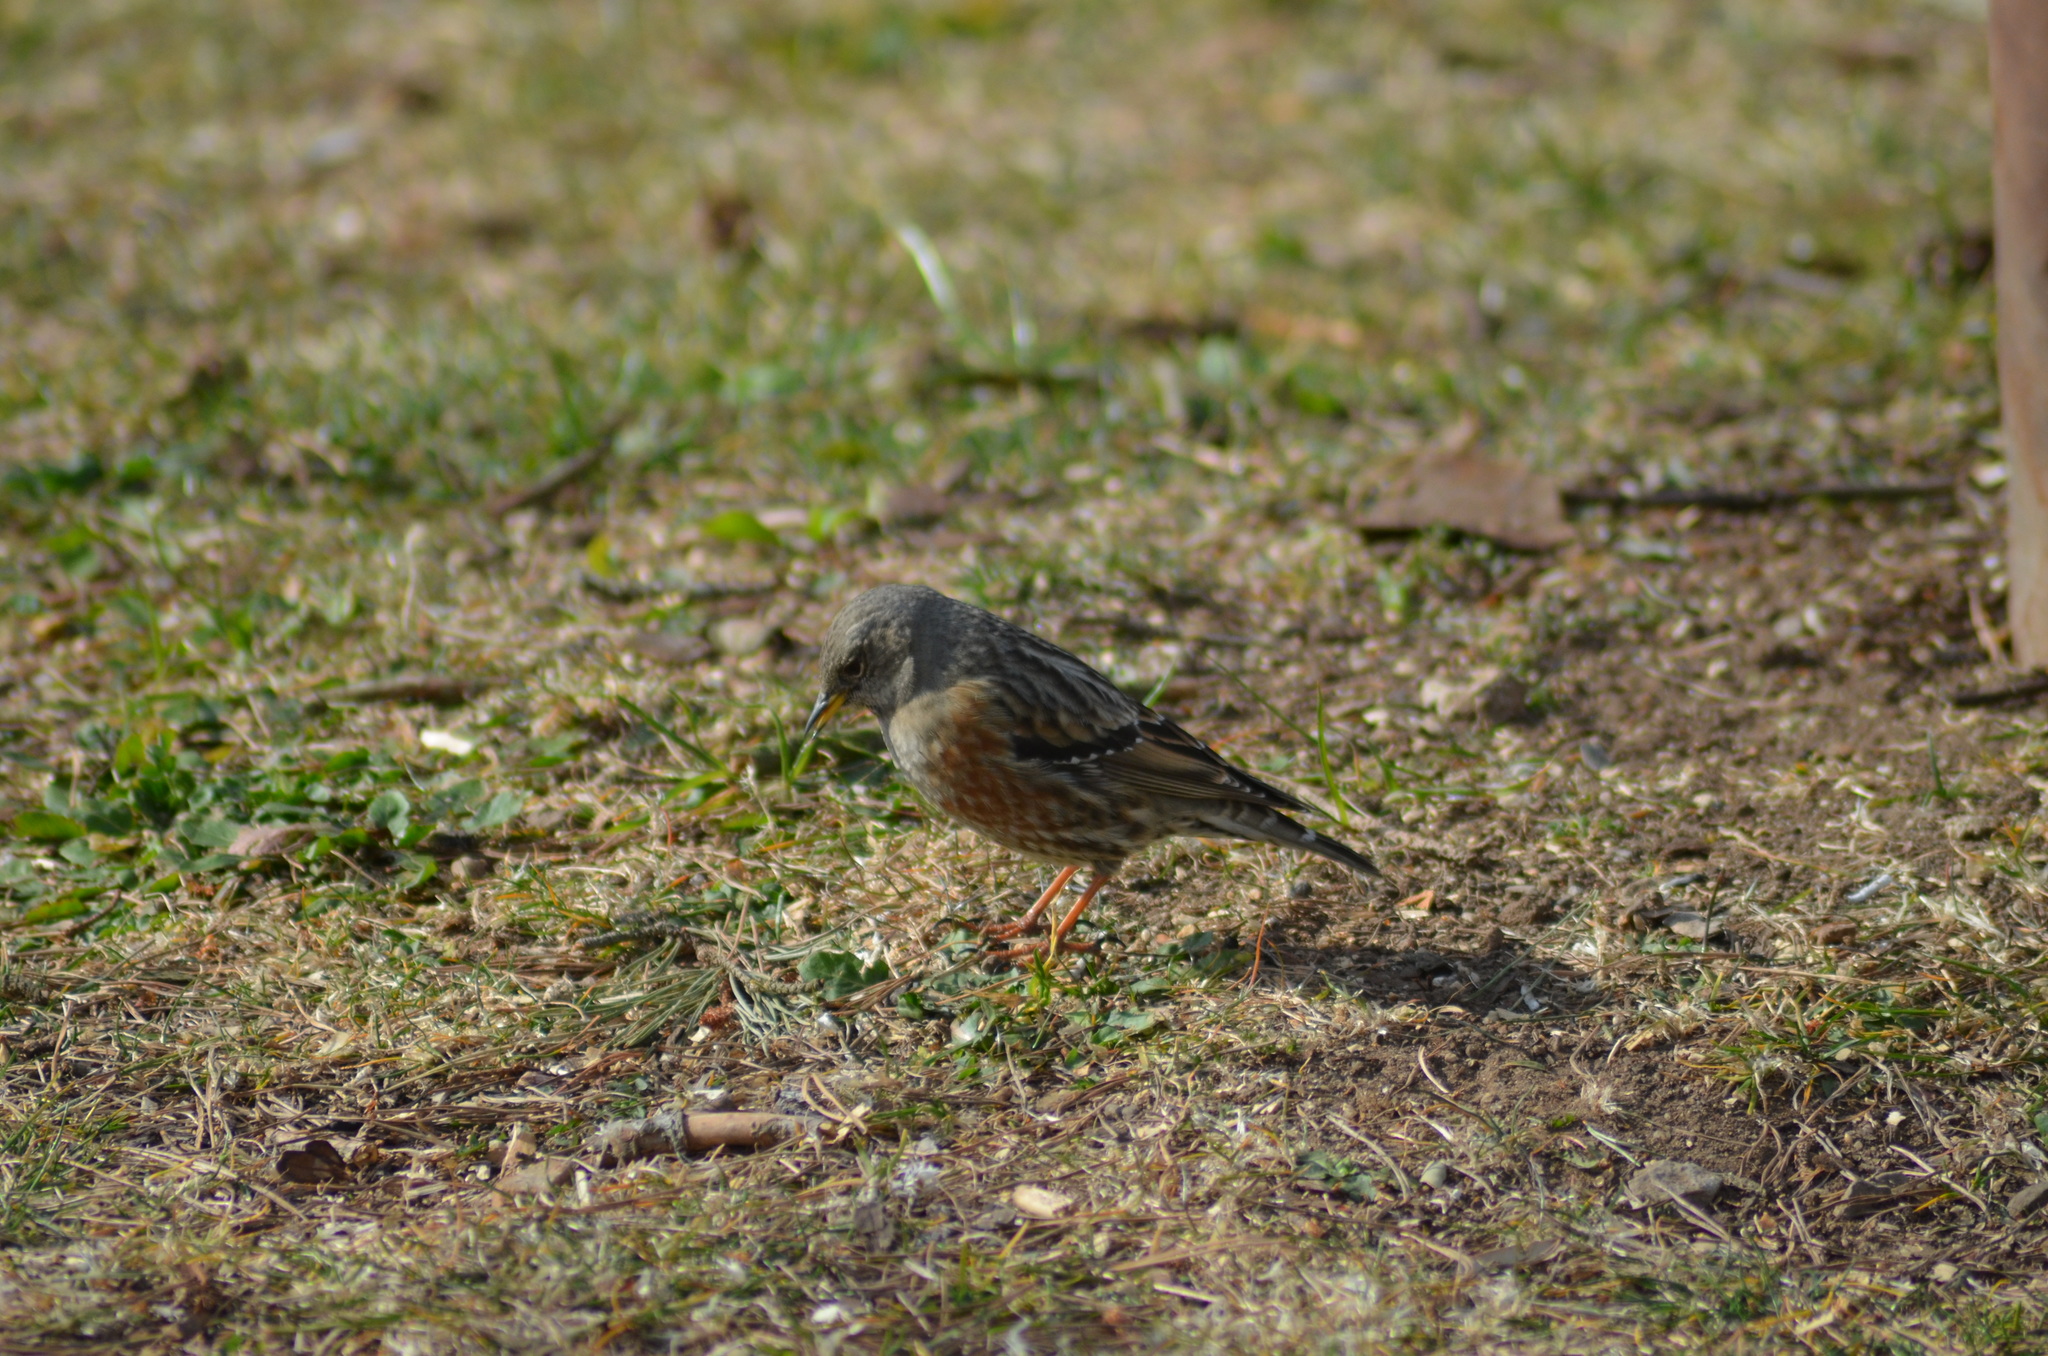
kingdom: Animalia
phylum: Chordata
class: Aves
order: Passeriformes
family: Prunellidae
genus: Prunella
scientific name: Prunella collaris
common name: Alpine accentor
